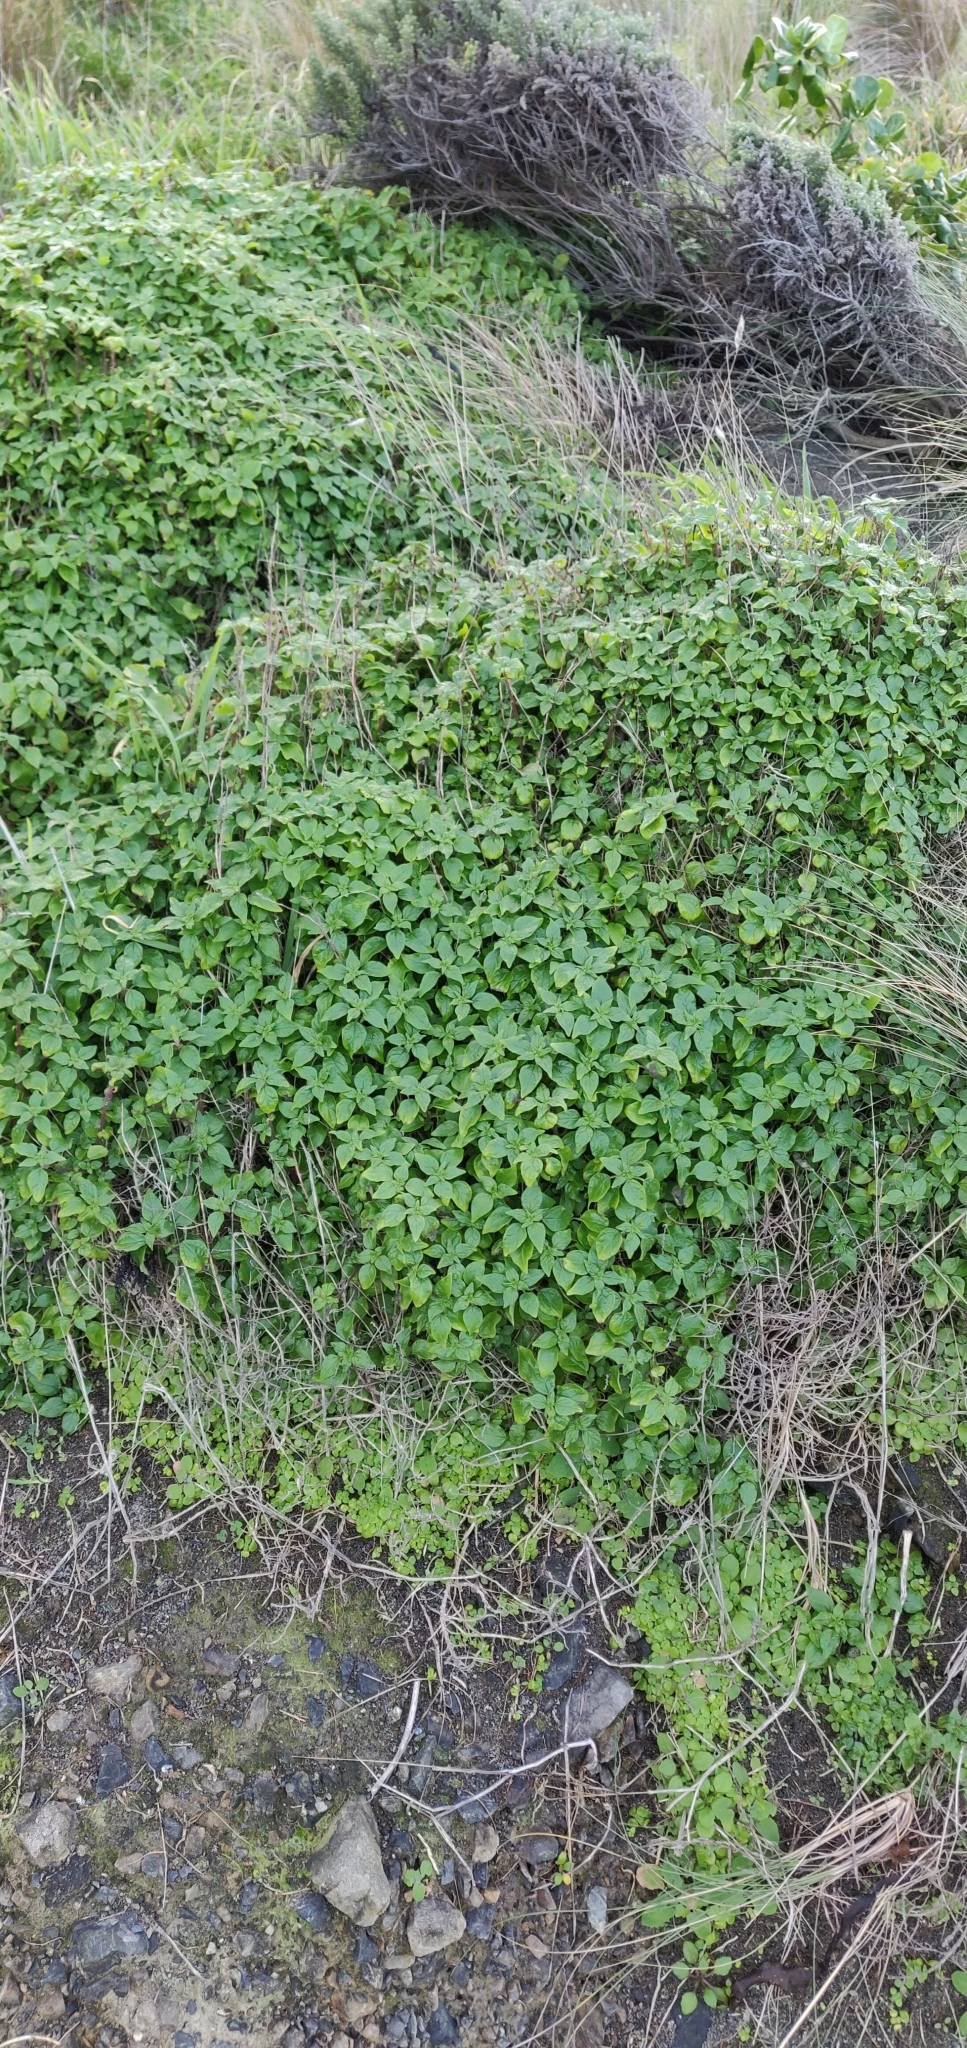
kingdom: Plantae
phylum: Tracheophyta
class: Magnoliopsida
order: Rosales
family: Urticaceae
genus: Parietaria
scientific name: Parietaria judaica
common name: Pellitory-of-the-wall
